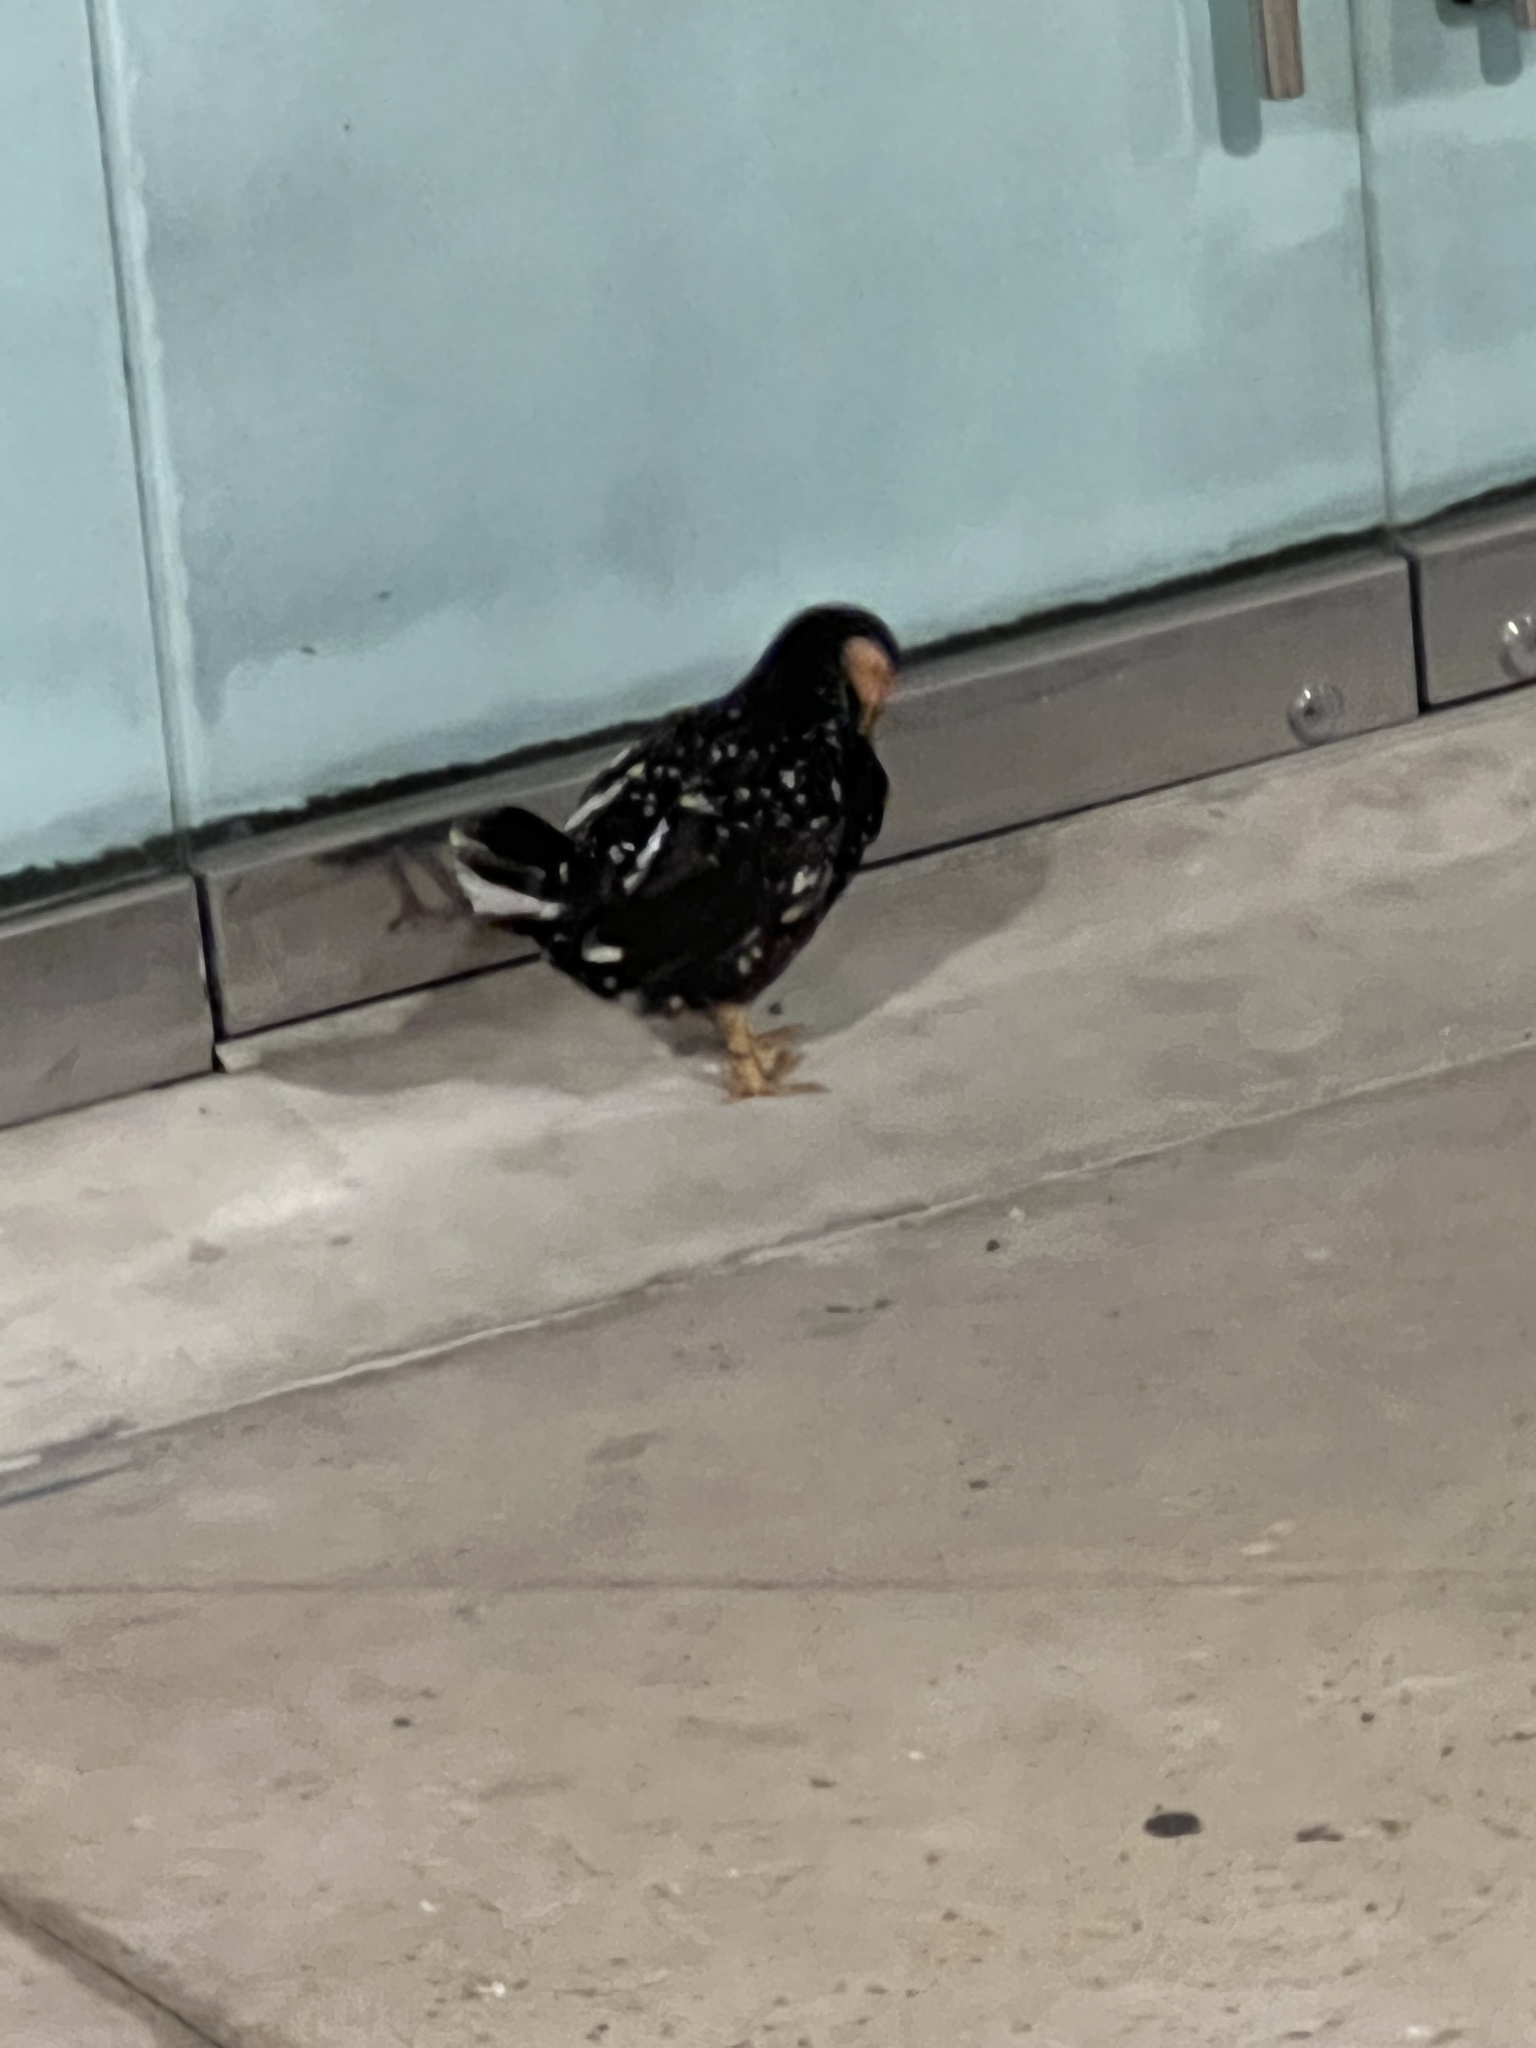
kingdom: Animalia
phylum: Chordata
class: Aves
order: Galliformes
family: Phasianidae
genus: Gallus
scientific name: Gallus gallus
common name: Red junglefowl
